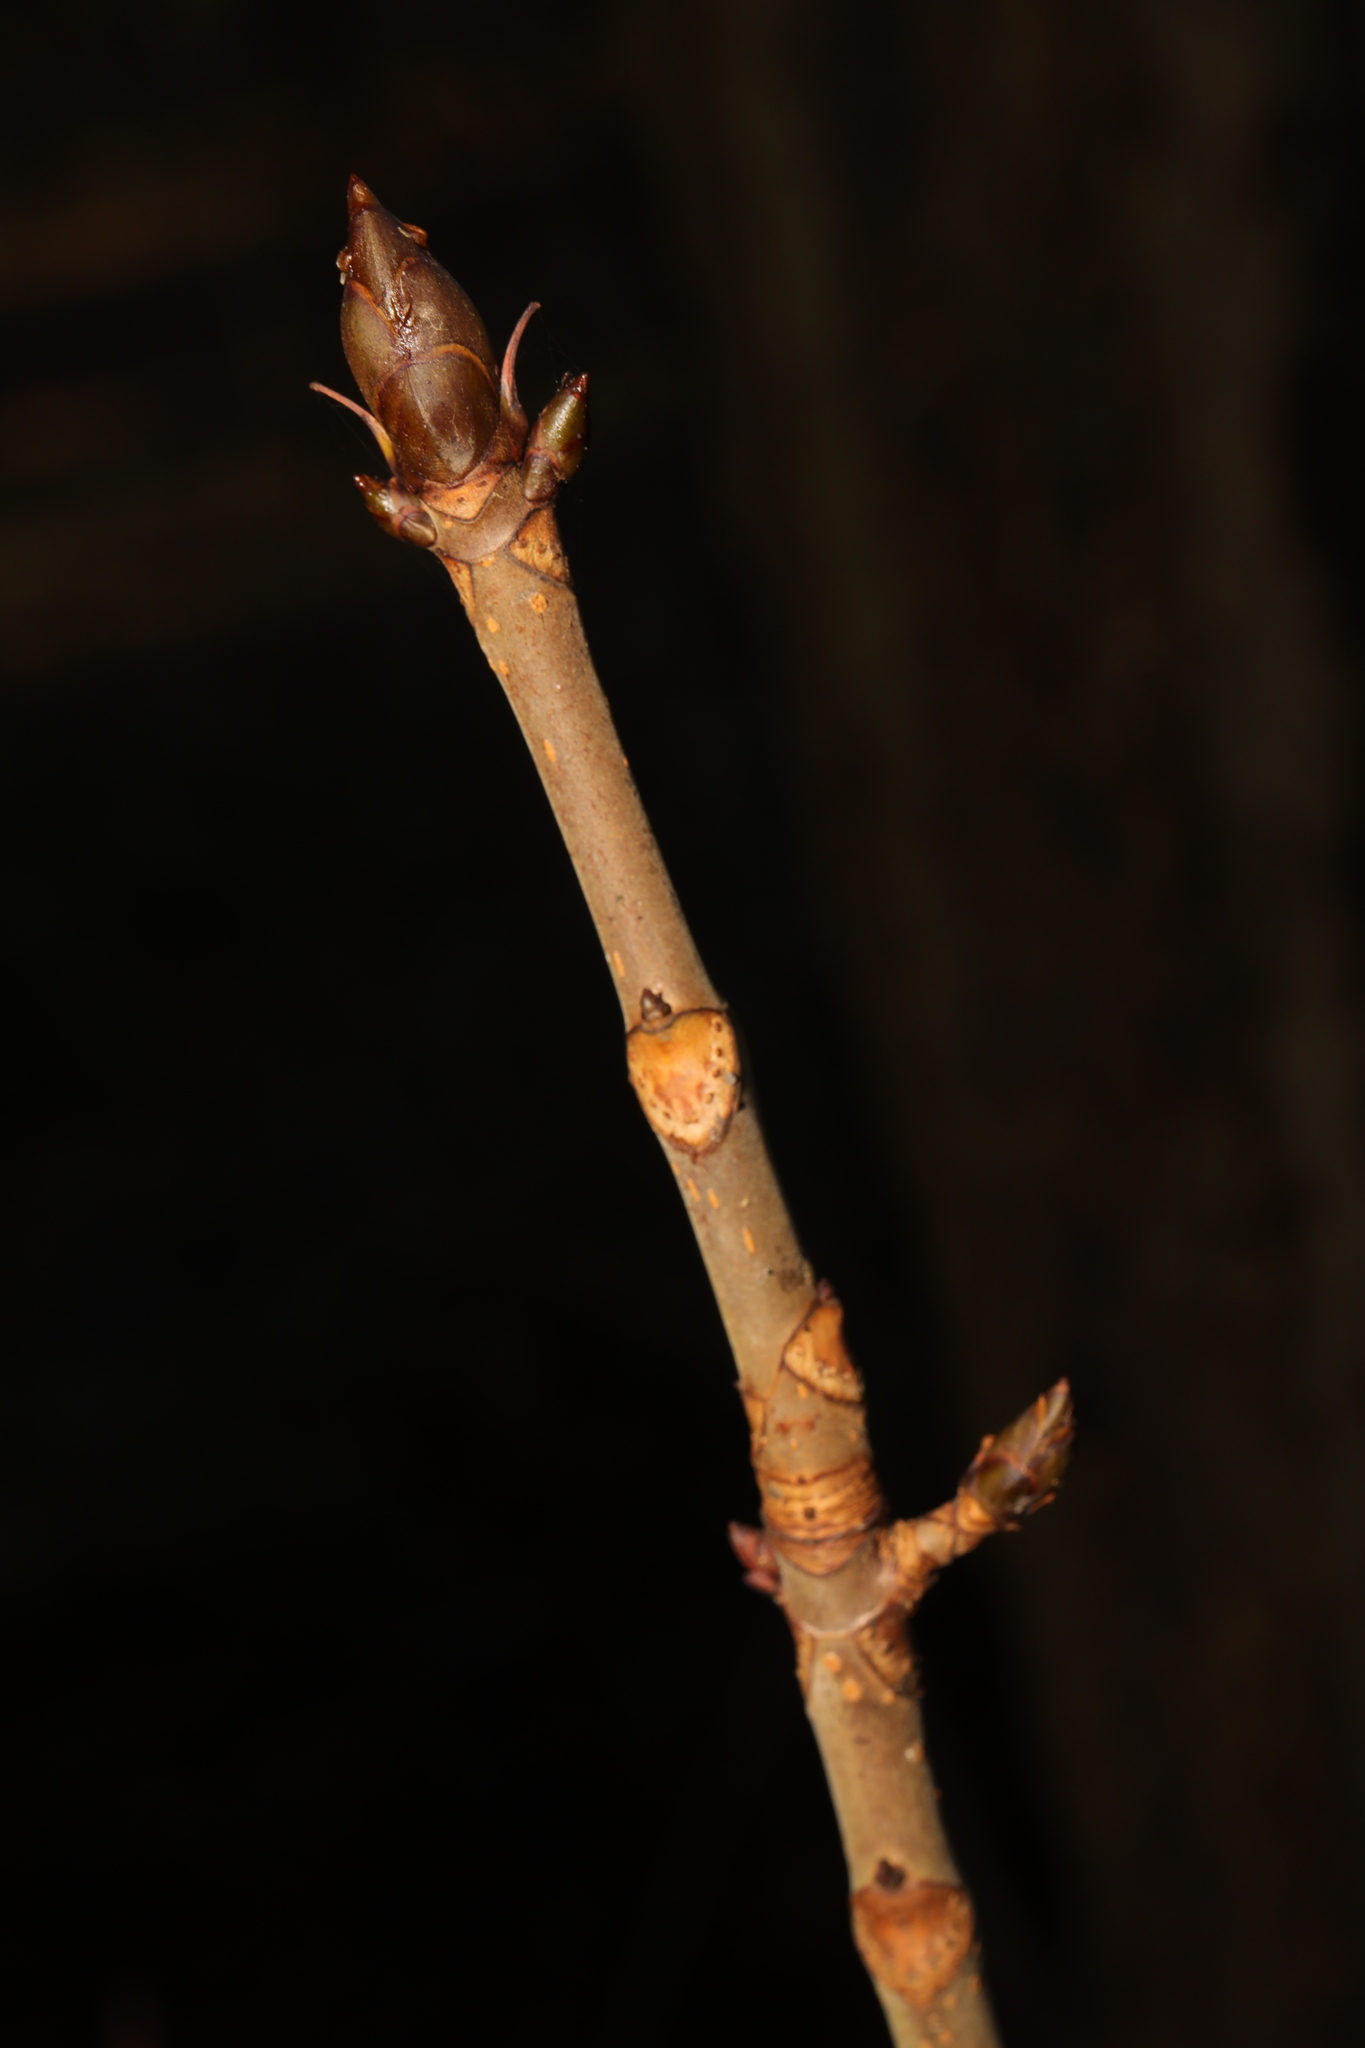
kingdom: Plantae
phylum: Tracheophyta
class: Magnoliopsida
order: Sapindales
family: Sapindaceae
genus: Aesculus
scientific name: Aesculus hippocastanum
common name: Horse-chestnut
